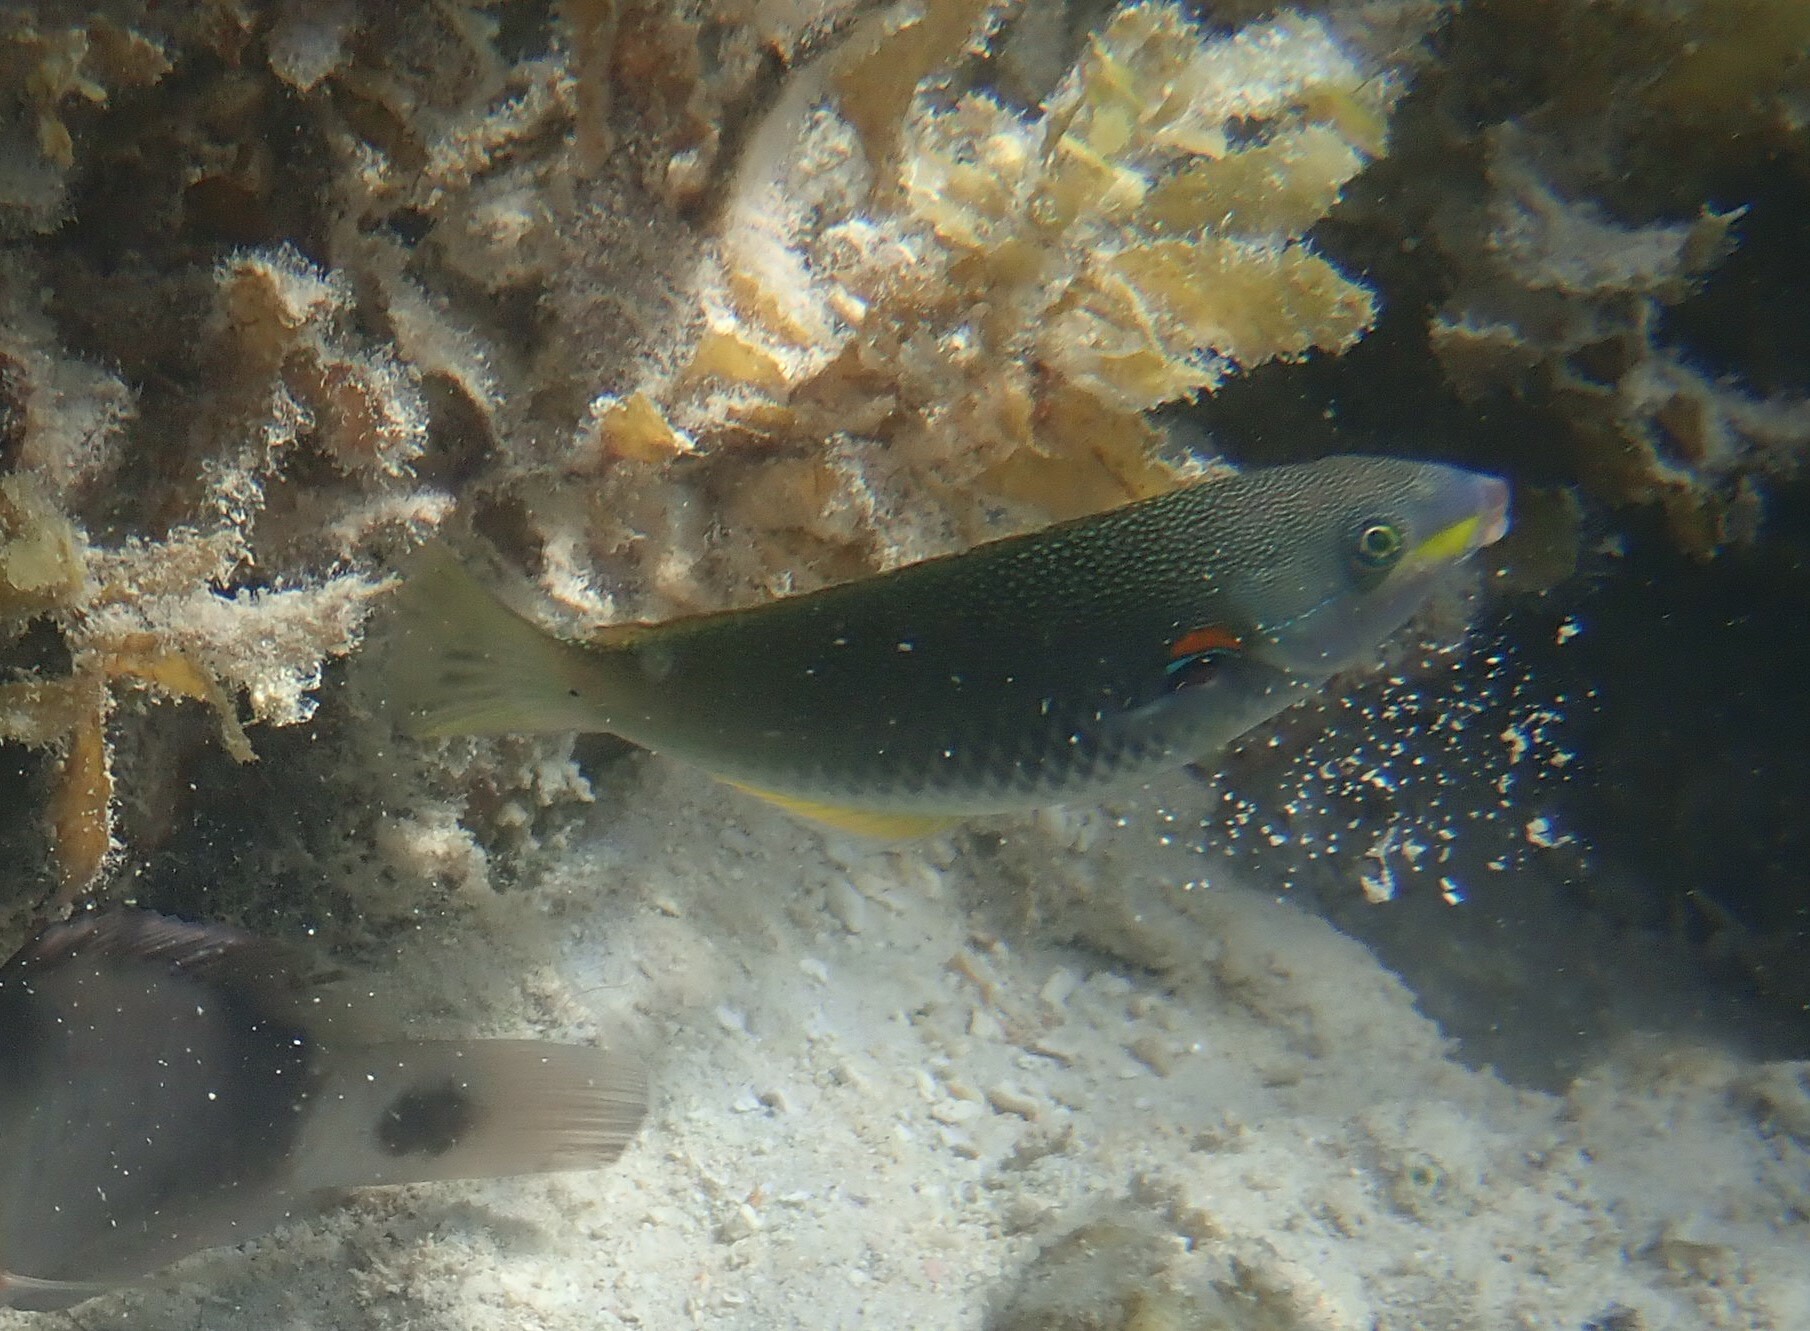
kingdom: Animalia
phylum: Chordata
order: Perciformes
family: Labridae
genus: Stethojulis
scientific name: Stethojulis albovittata
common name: Bluelined wrasse
